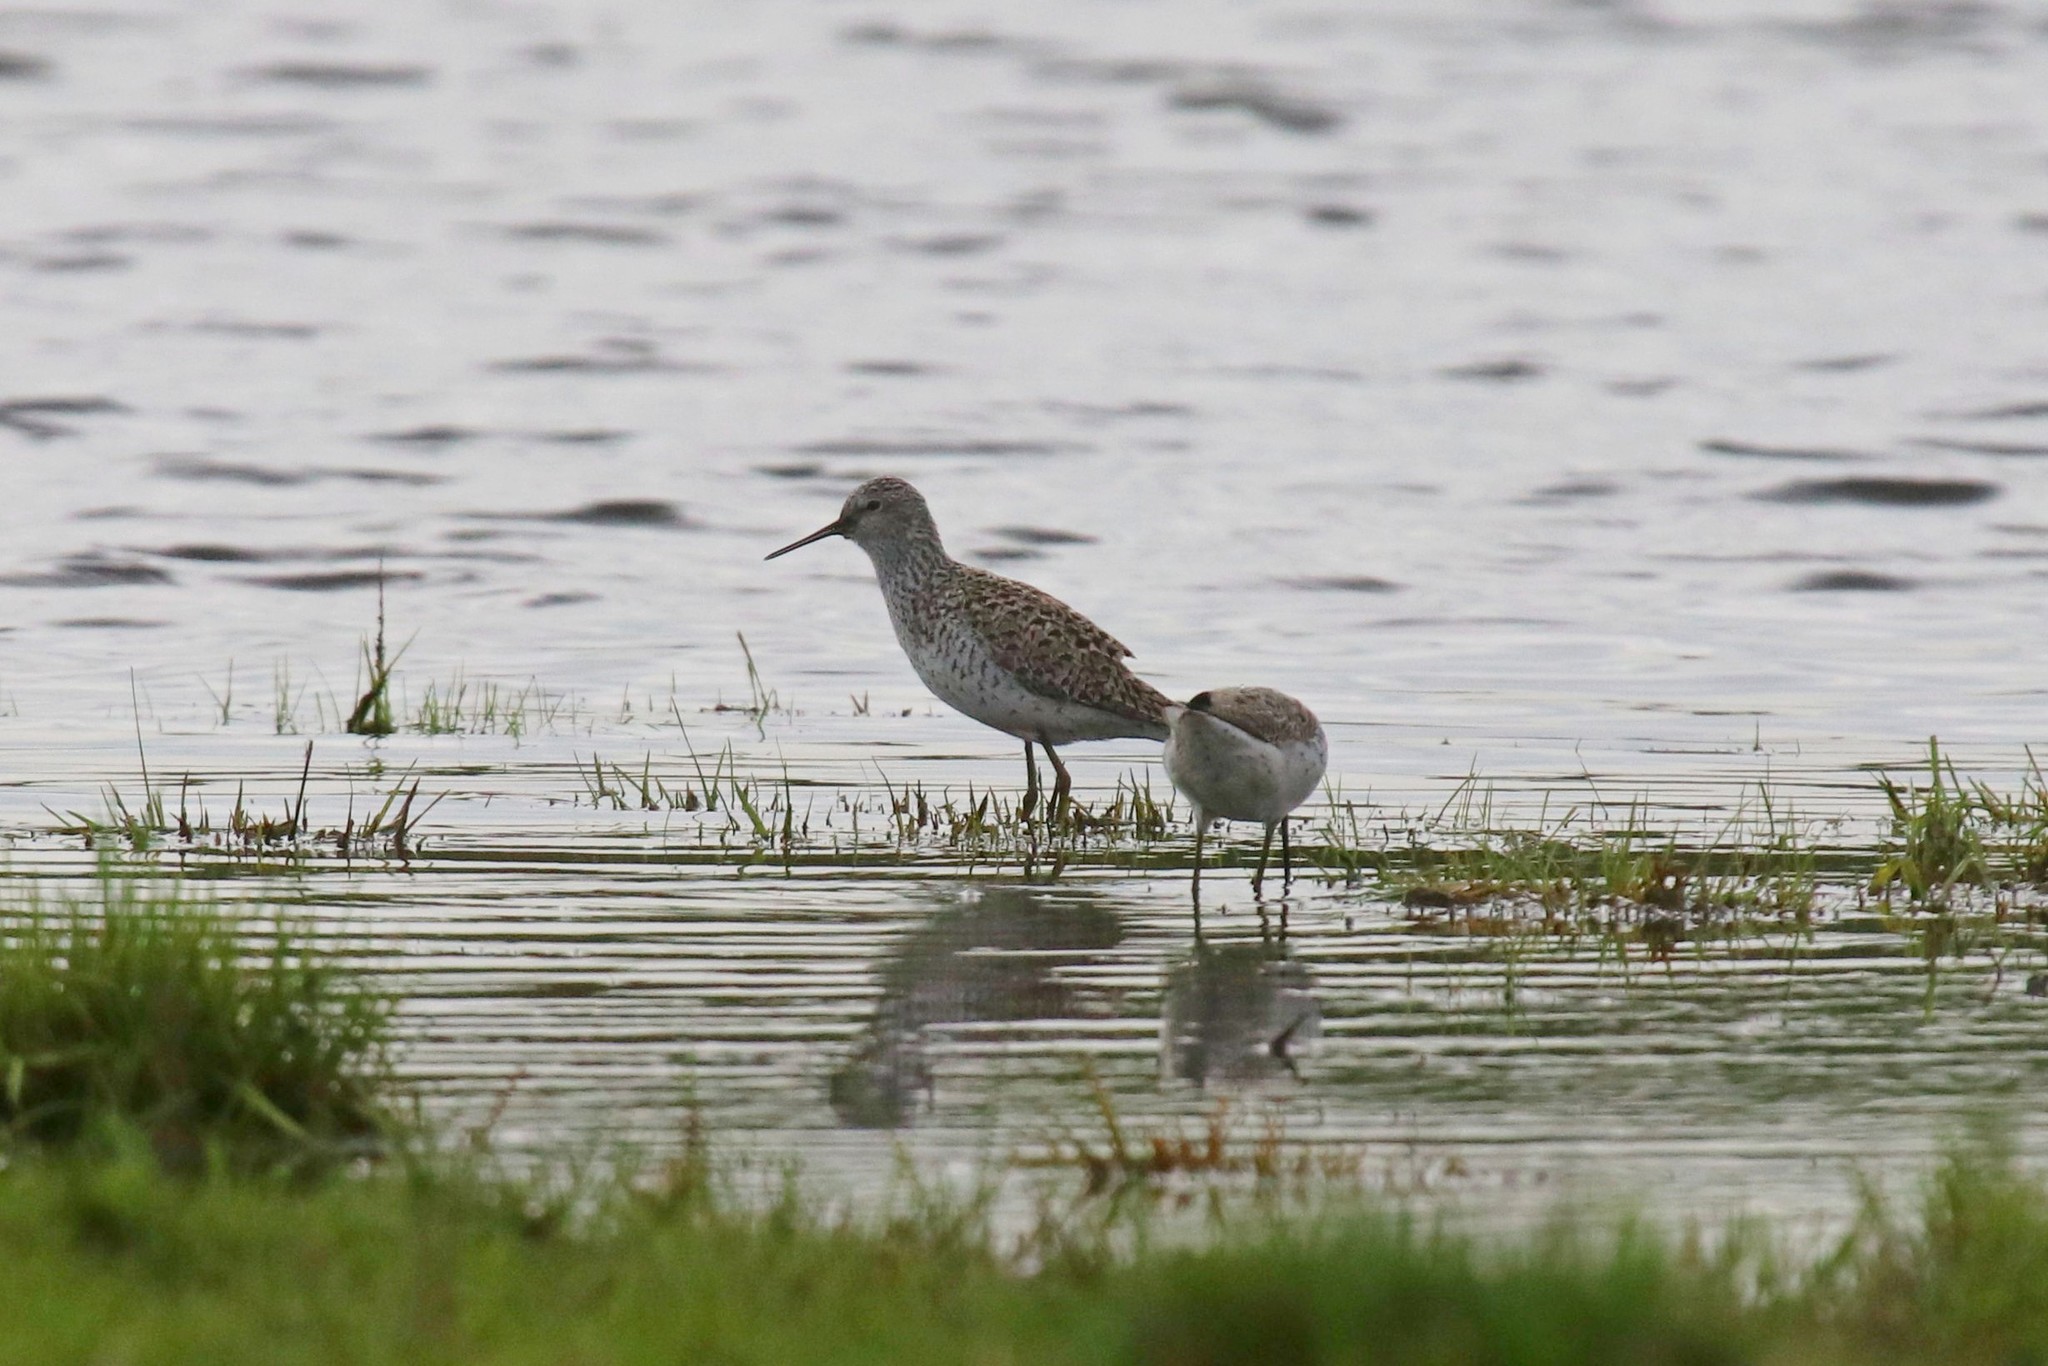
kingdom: Animalia
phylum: Chordata
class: Aves
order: Charadriiformes
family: Scolopacidae
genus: Tringa
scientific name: Tringa stagnatilis
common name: Marsh sandpiper
